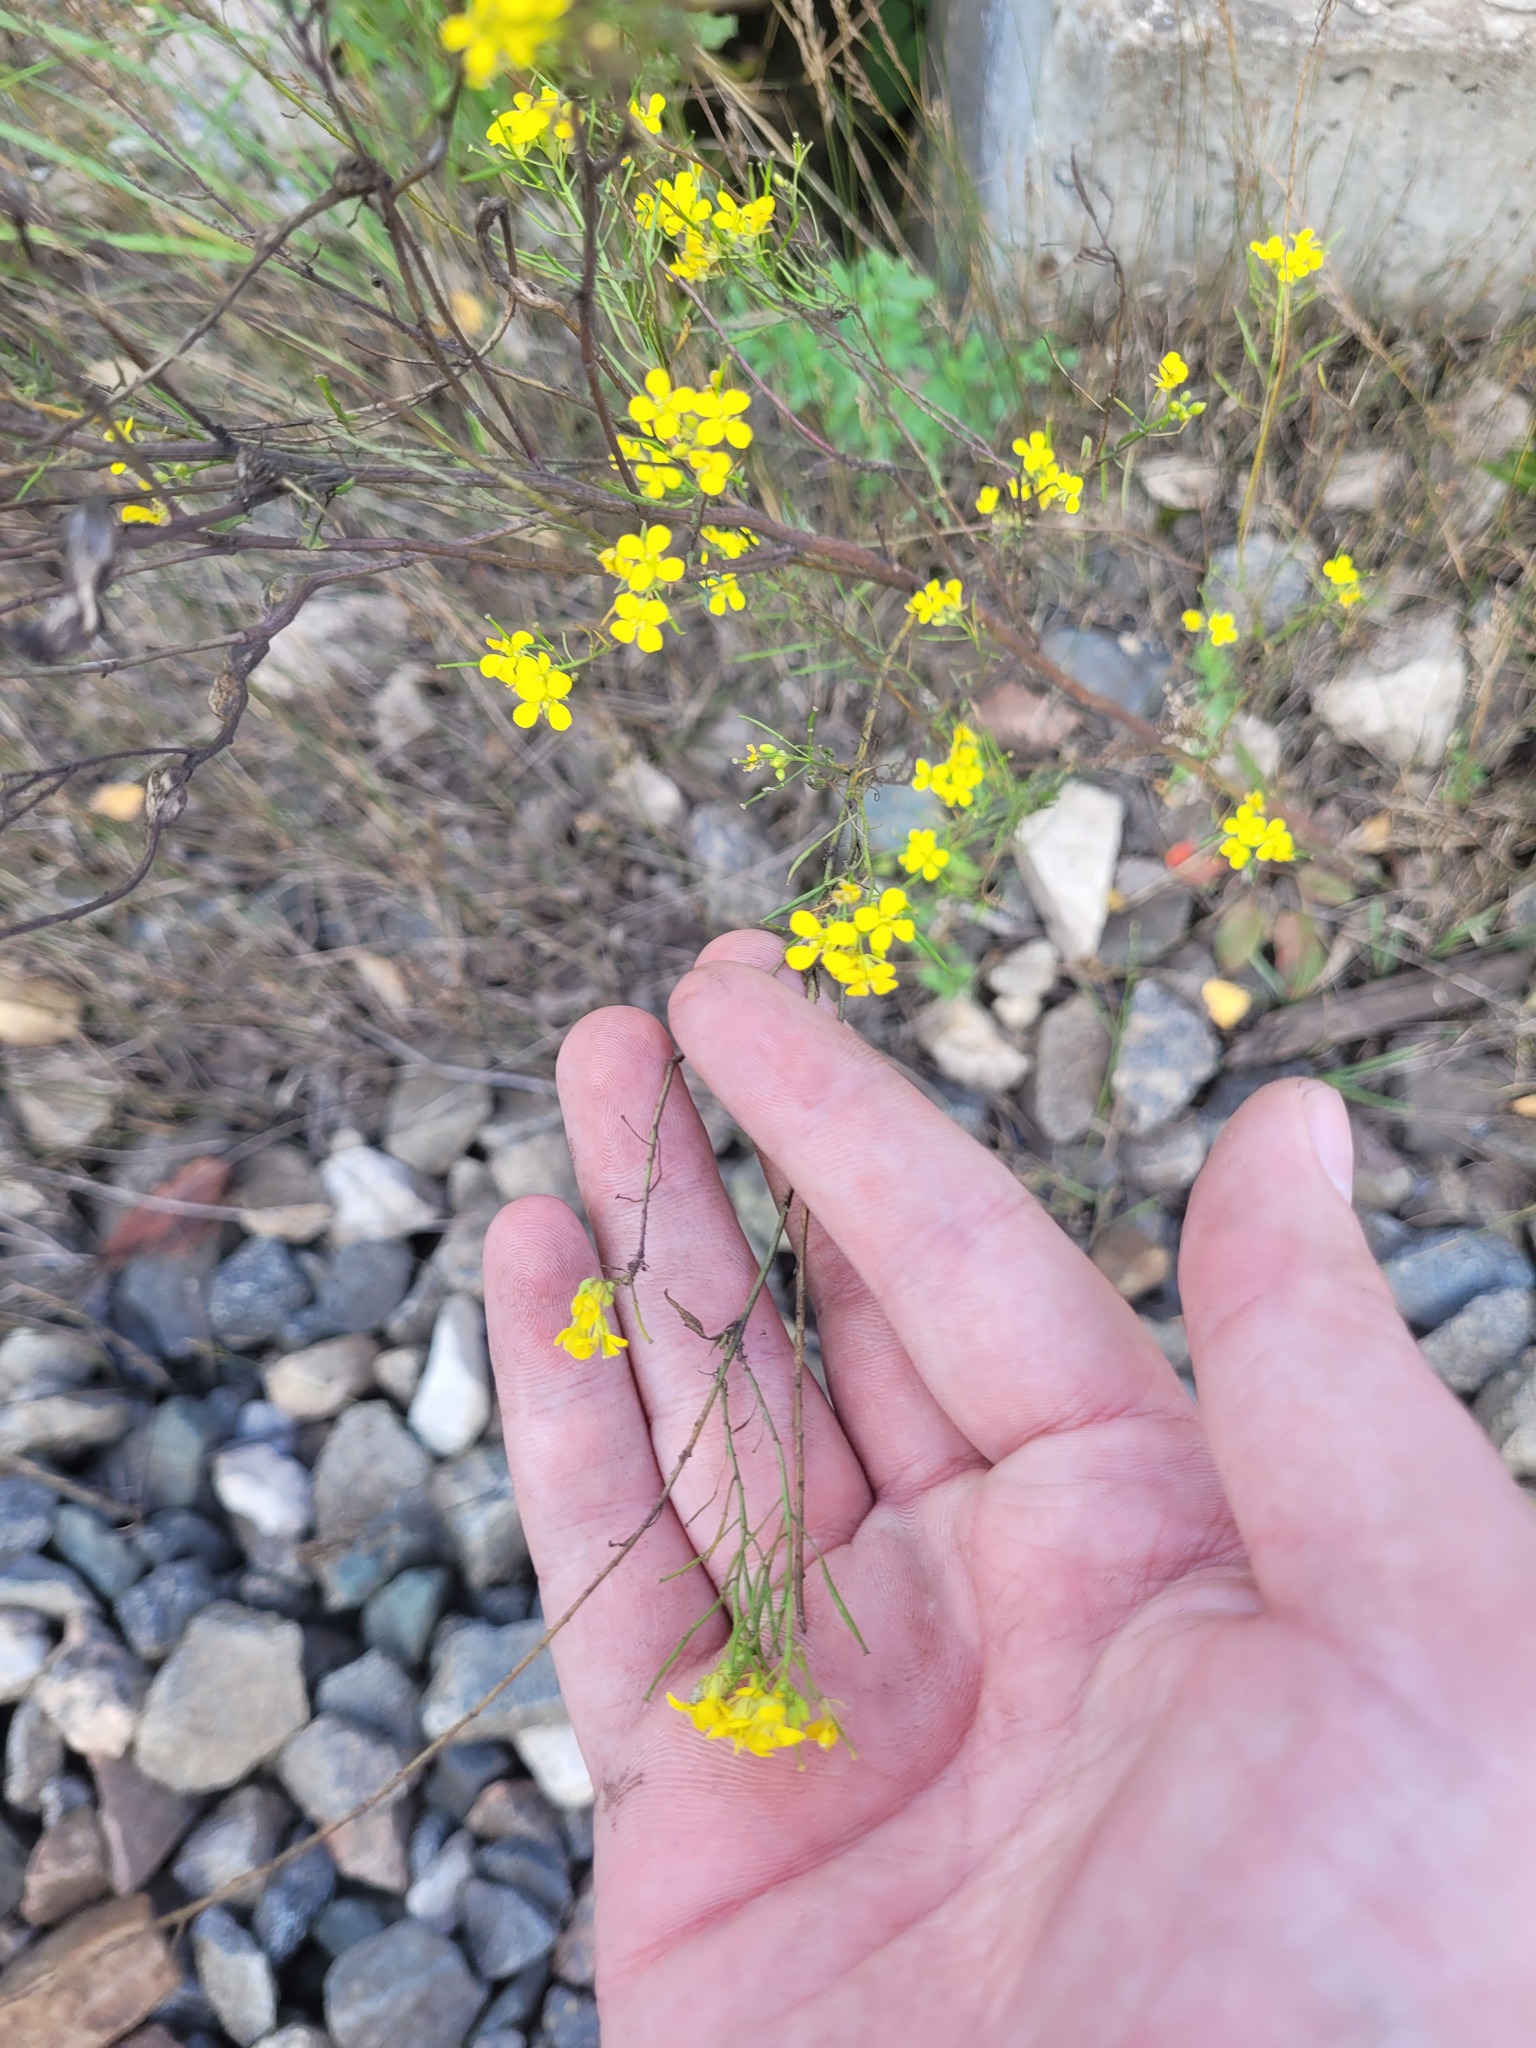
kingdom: Plantae
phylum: Tracheophyta
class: Magnoliopsida
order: Brassicales
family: Brassicaceae
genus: Sisymbrium
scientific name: Sisymbrium loeselii
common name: False london-rocket
